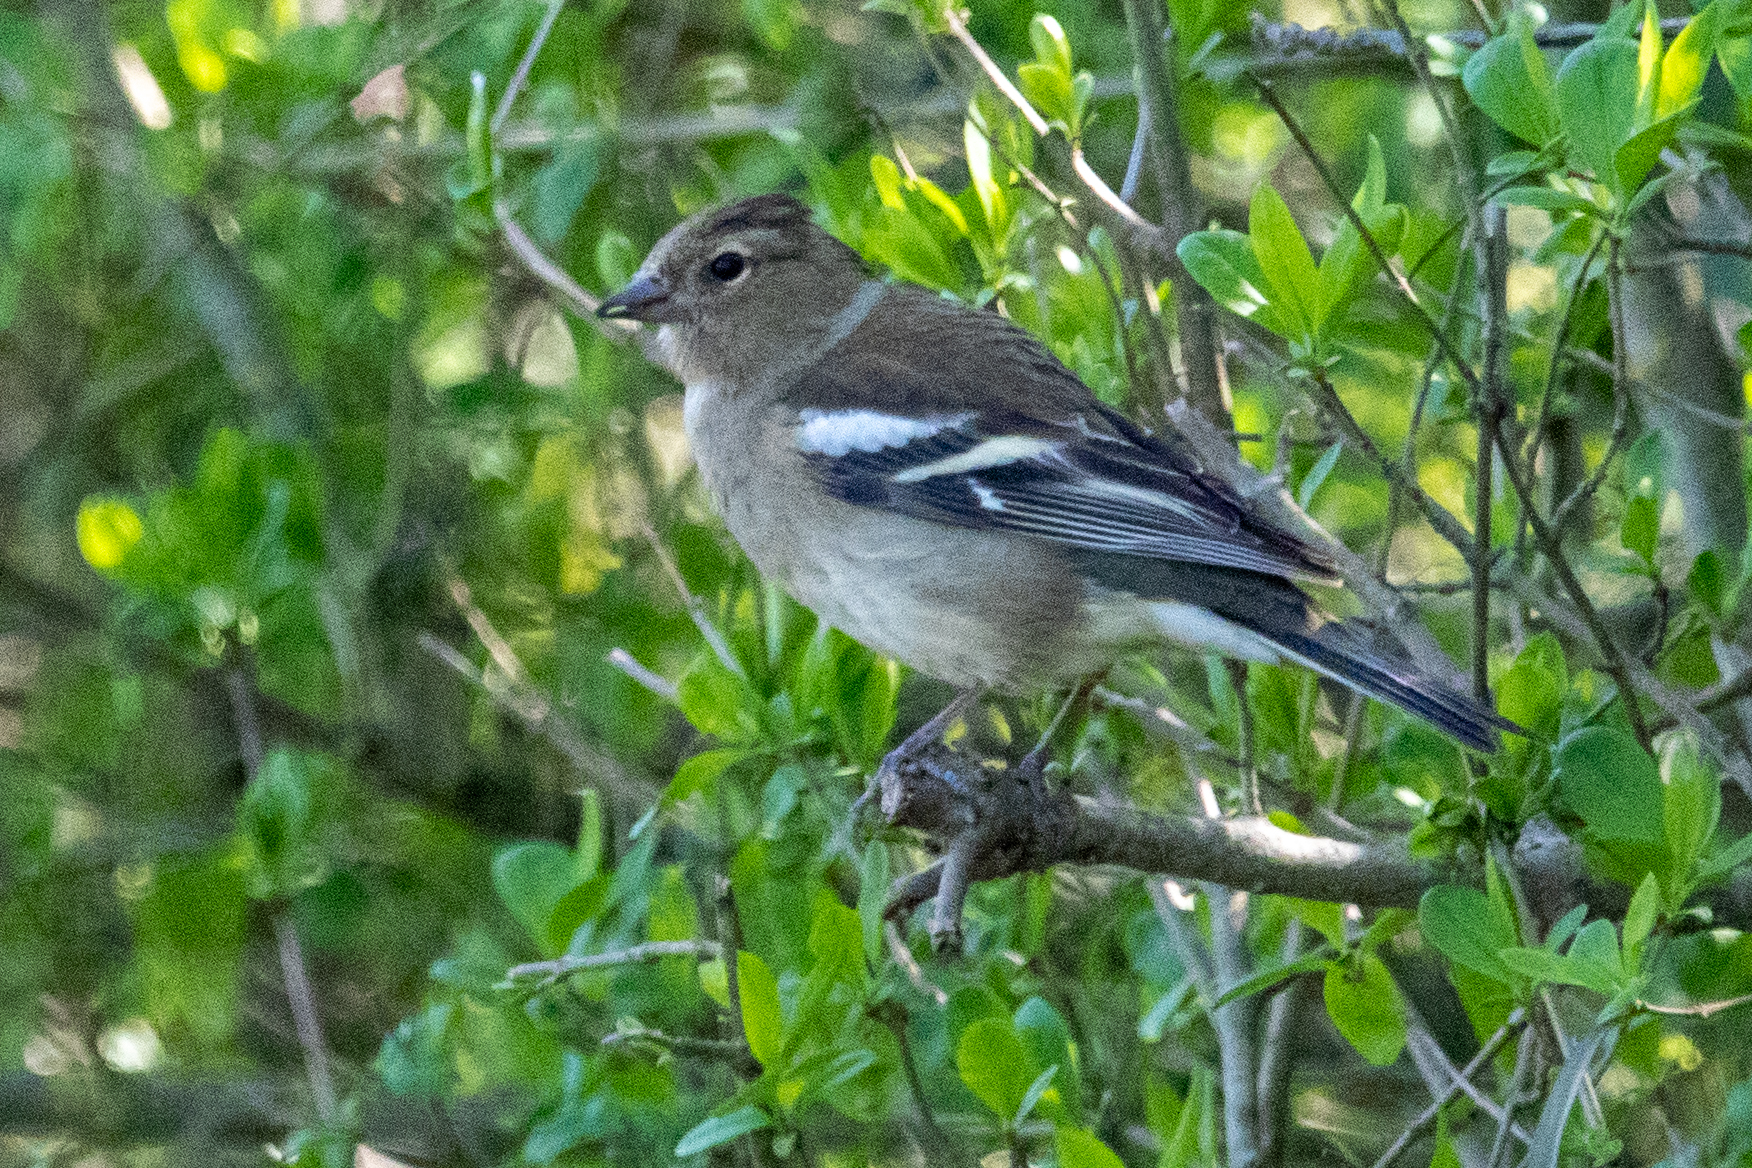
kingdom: Animalia
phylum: Chordata
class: Aves
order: Passeriformes
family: Fringillidae
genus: Fringilla
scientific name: Fringilla coelebs
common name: Common chaffinch
